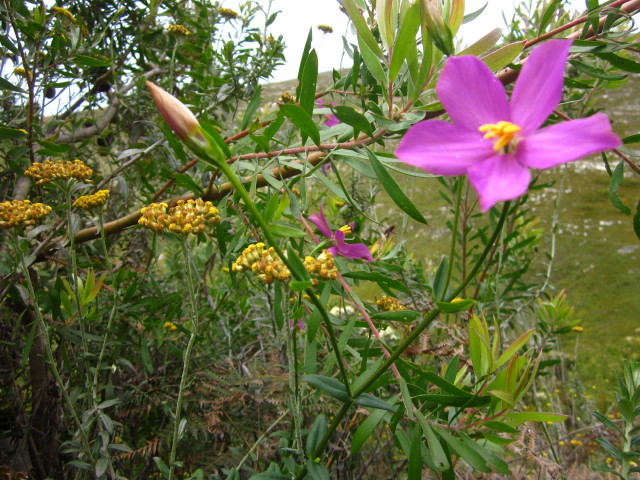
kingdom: Plantae
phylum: Tracheophyta
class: Magnoliopsida
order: Gentianales
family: Gentianaceae
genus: Chironia
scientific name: Chironia melampyrifolia
